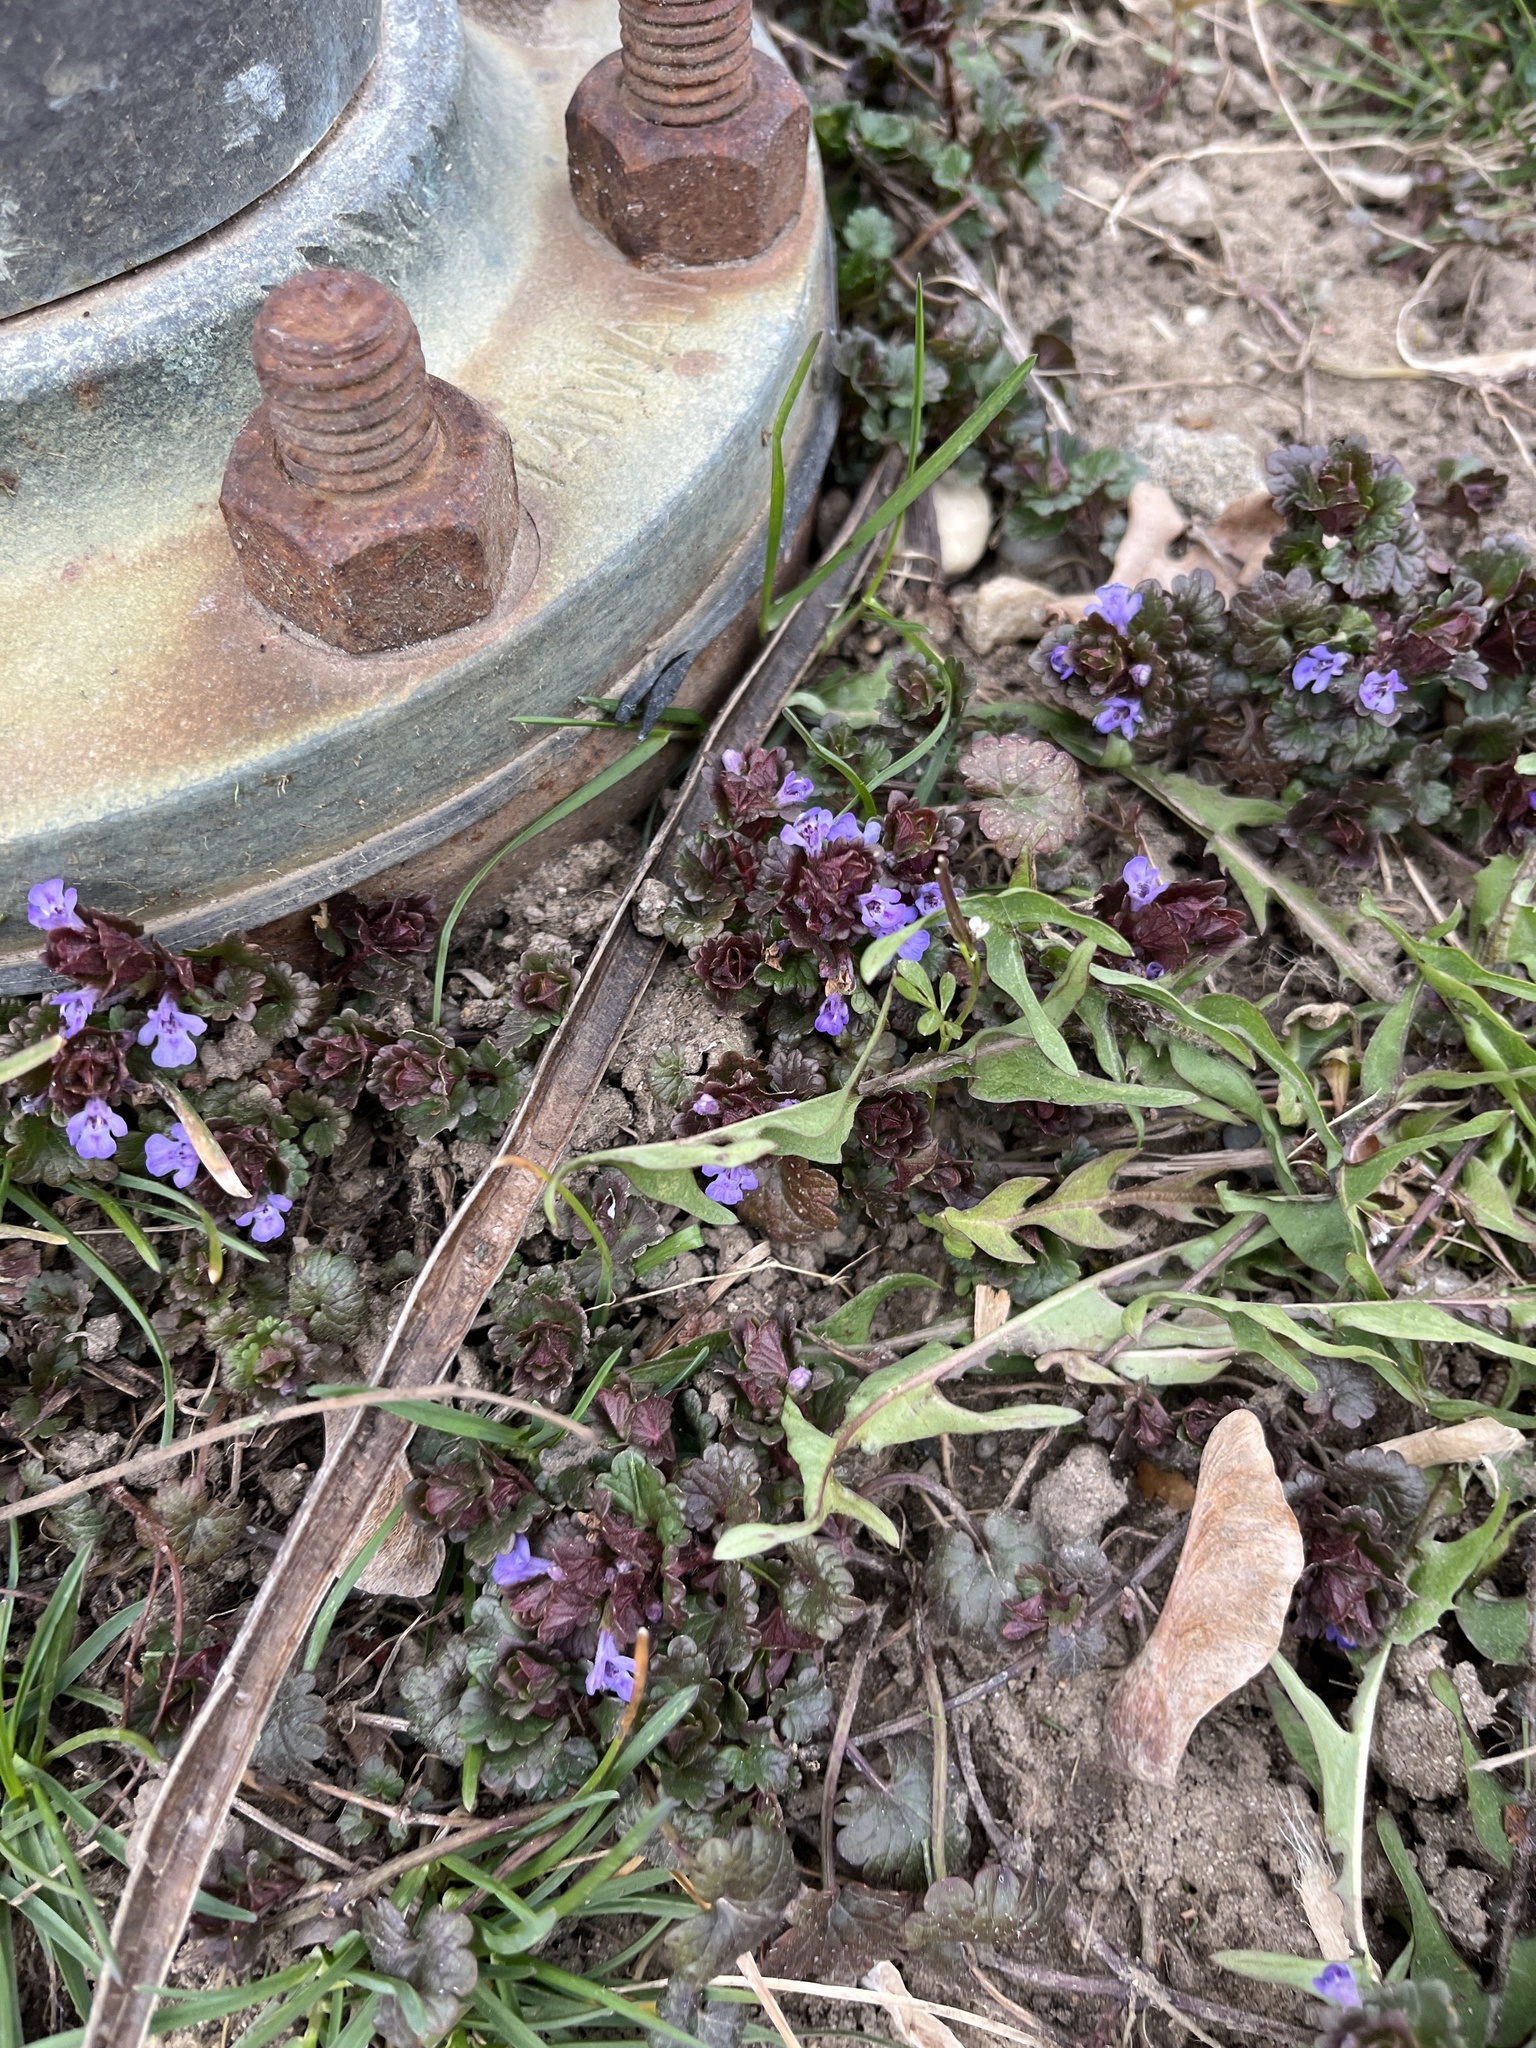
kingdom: Plantae
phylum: Tracheophyta
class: Magnoliopsida
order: Lamiales
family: Lamiaceae
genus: Glechoma
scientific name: Glechoma hederacea
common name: Ground ivy
